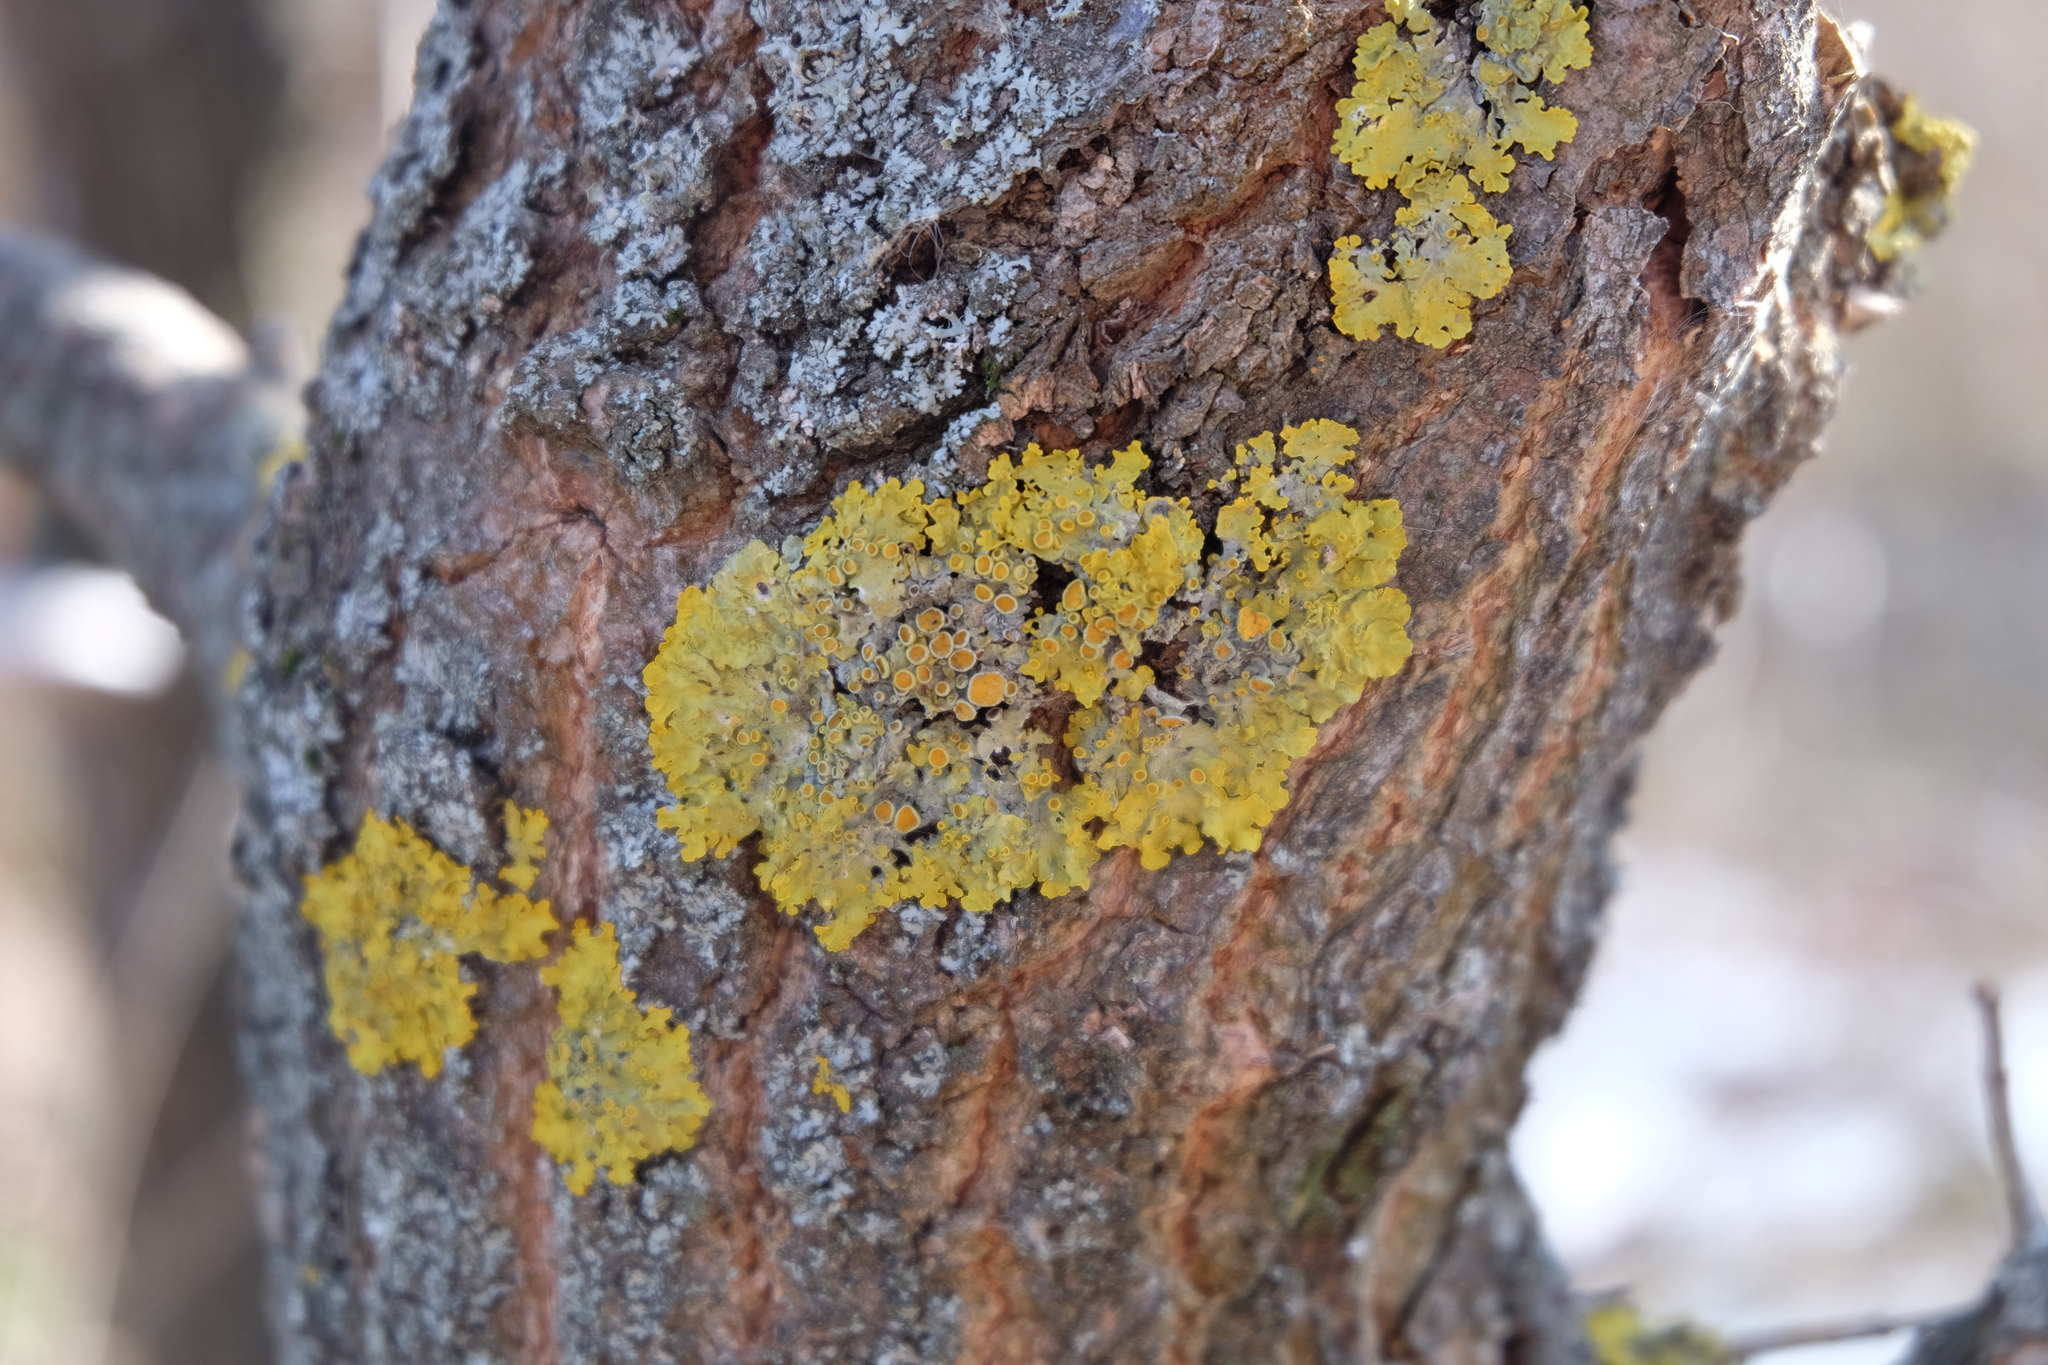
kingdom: Fungi
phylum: Ascomycota
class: Lecanoromycetes
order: Teloschistales
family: Teloschistaceae
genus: Xanthoria
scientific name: Xanthoria parietina
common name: Common orange lichen
